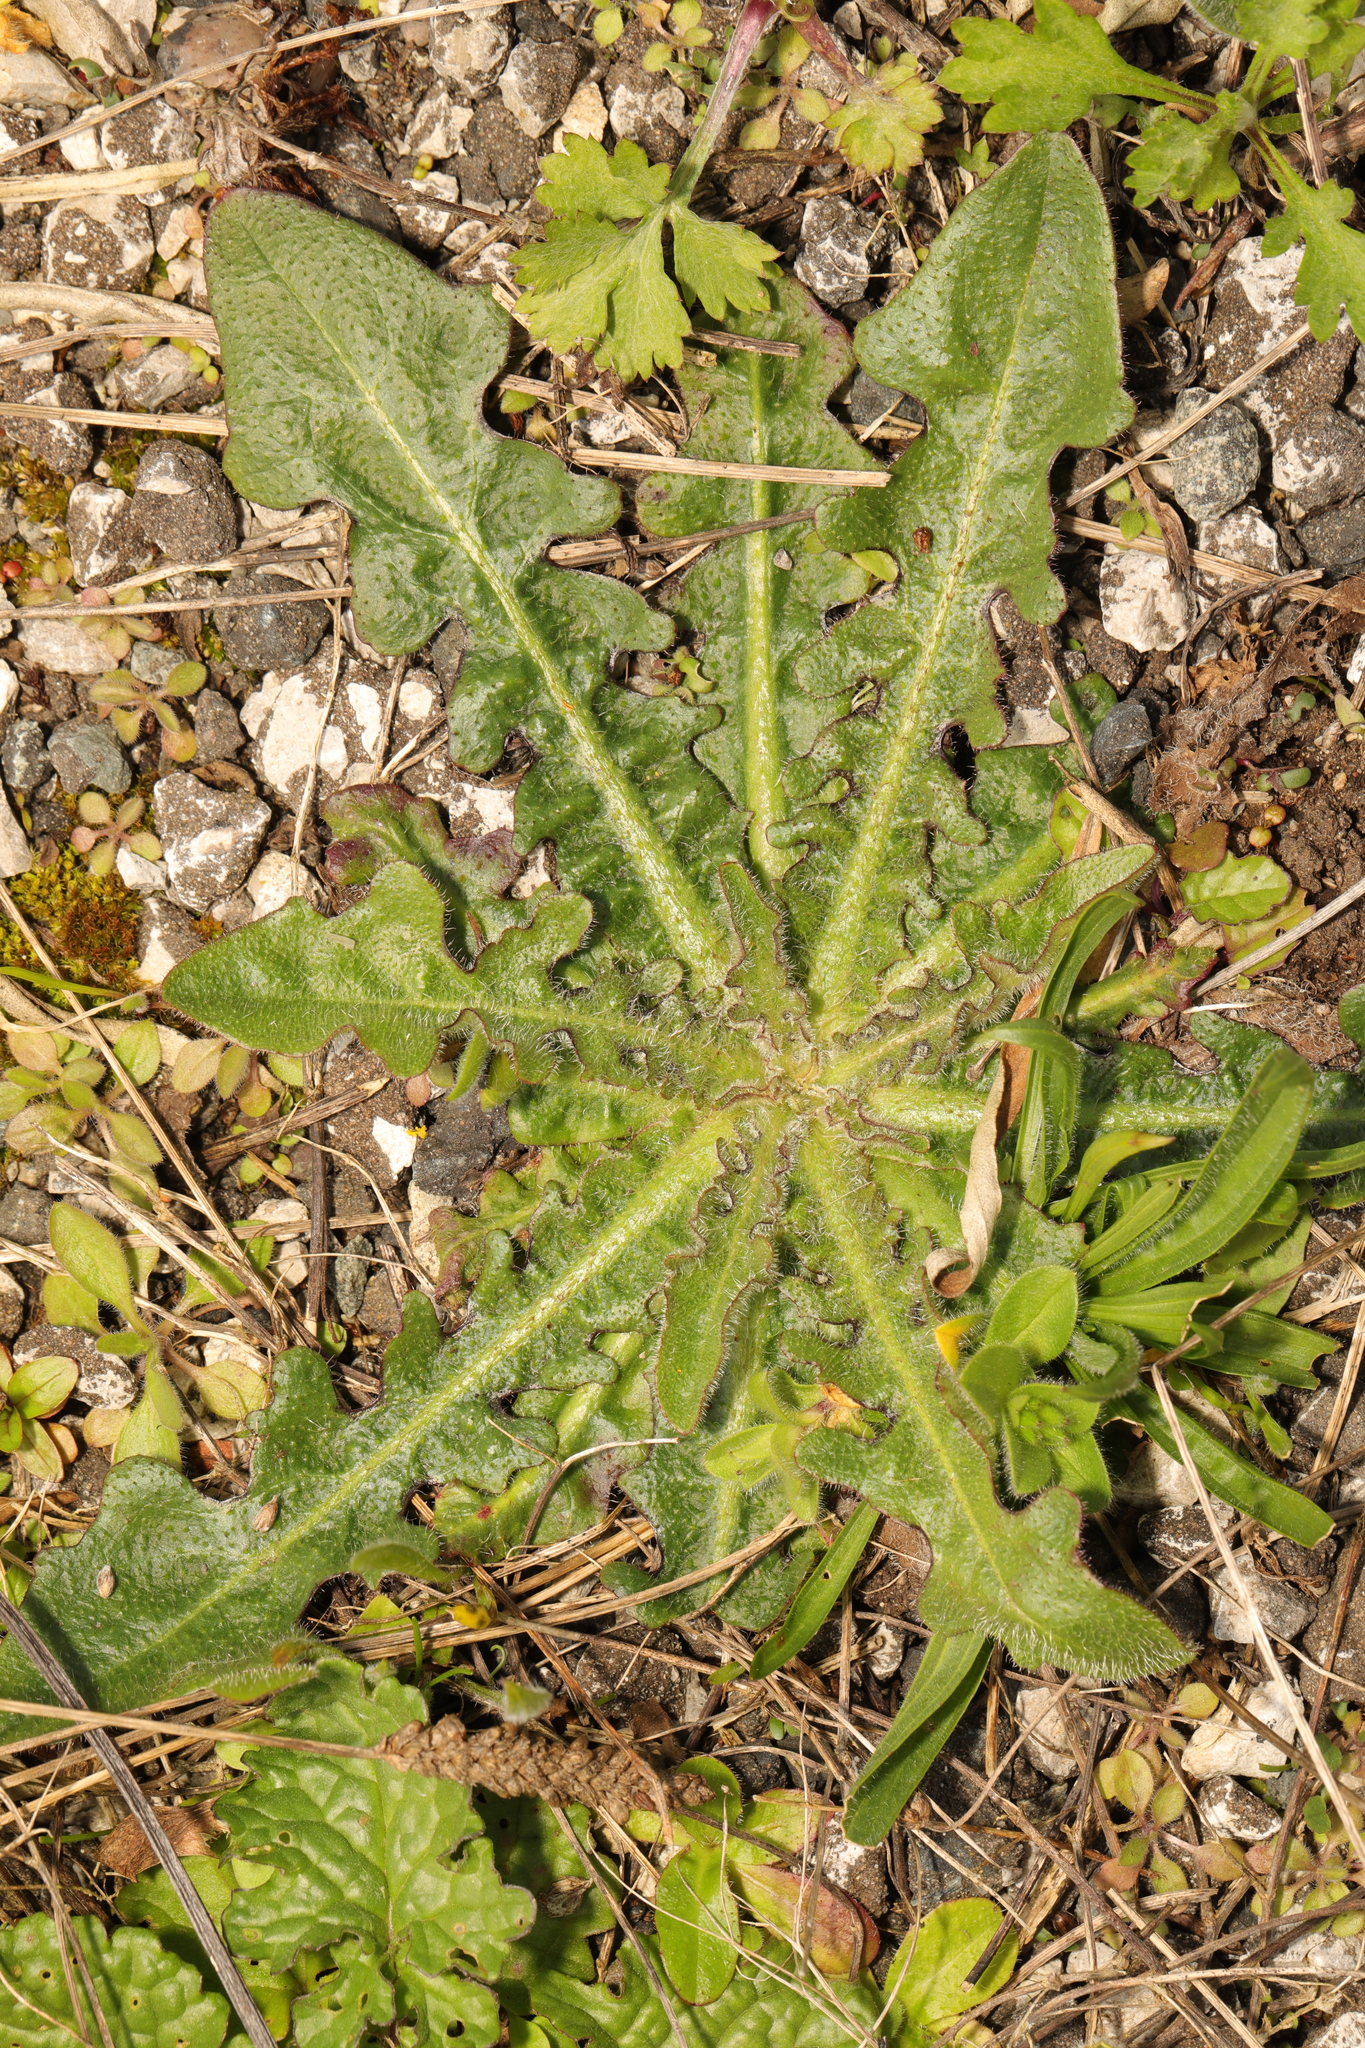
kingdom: Plantae
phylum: Tracheophyta
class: Magnoliopsida
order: Asterales
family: Asteraceae
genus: Hypochaeris
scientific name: Hypochaeris radicata
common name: Flatweed
